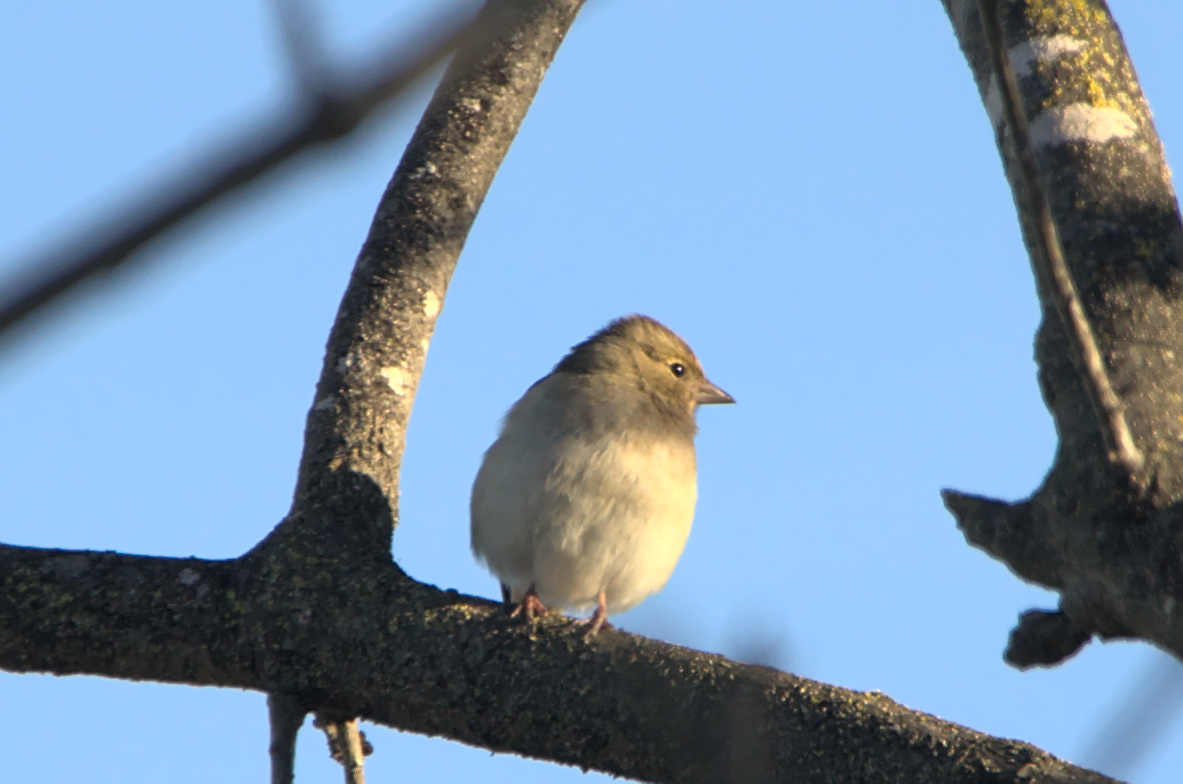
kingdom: Animalia
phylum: Chordata
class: Aves
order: Passeriformes
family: Fringillidae
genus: Fringilla
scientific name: Fringilla coelebs
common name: Common chaffinch
